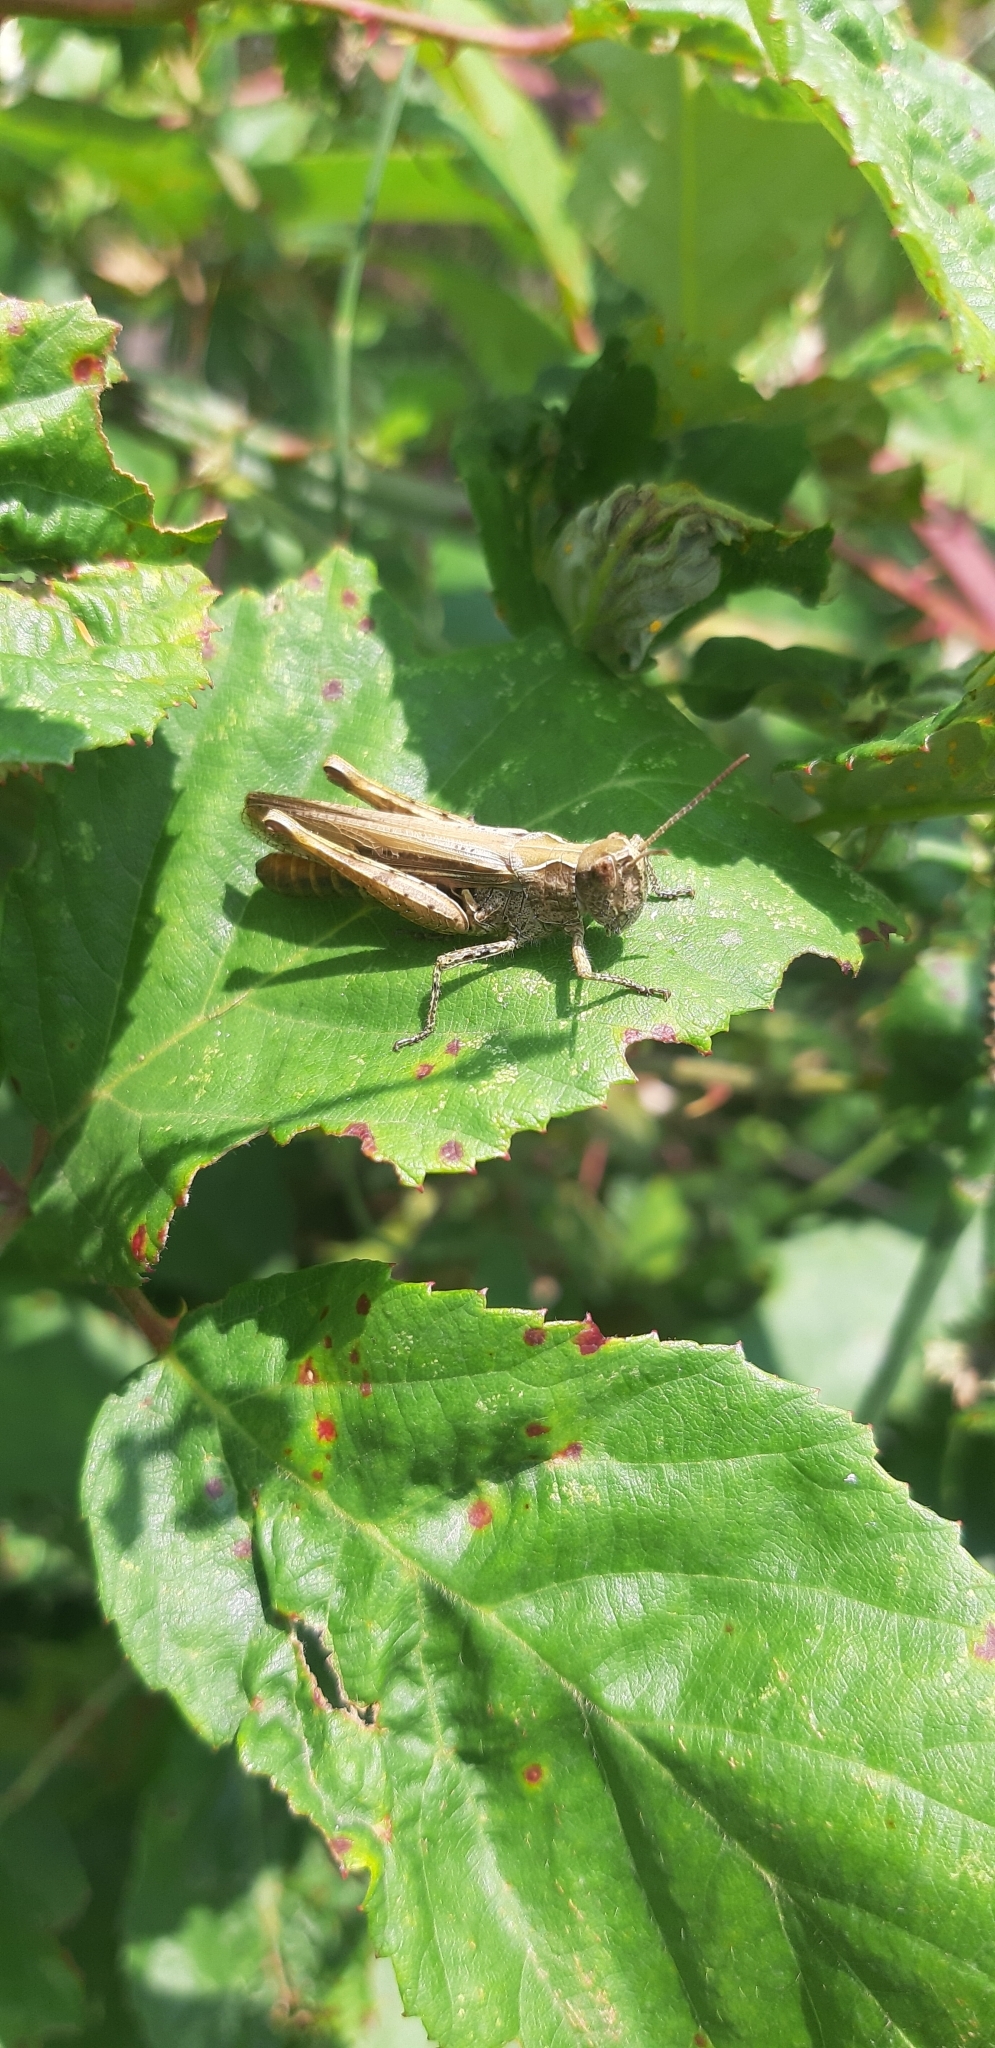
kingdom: Animalia
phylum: Arthropoda
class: Insecta
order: Orthoptera
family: Acrididae
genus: Chorthippus
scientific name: Chorthippus brunneus
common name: Field grasshopper
